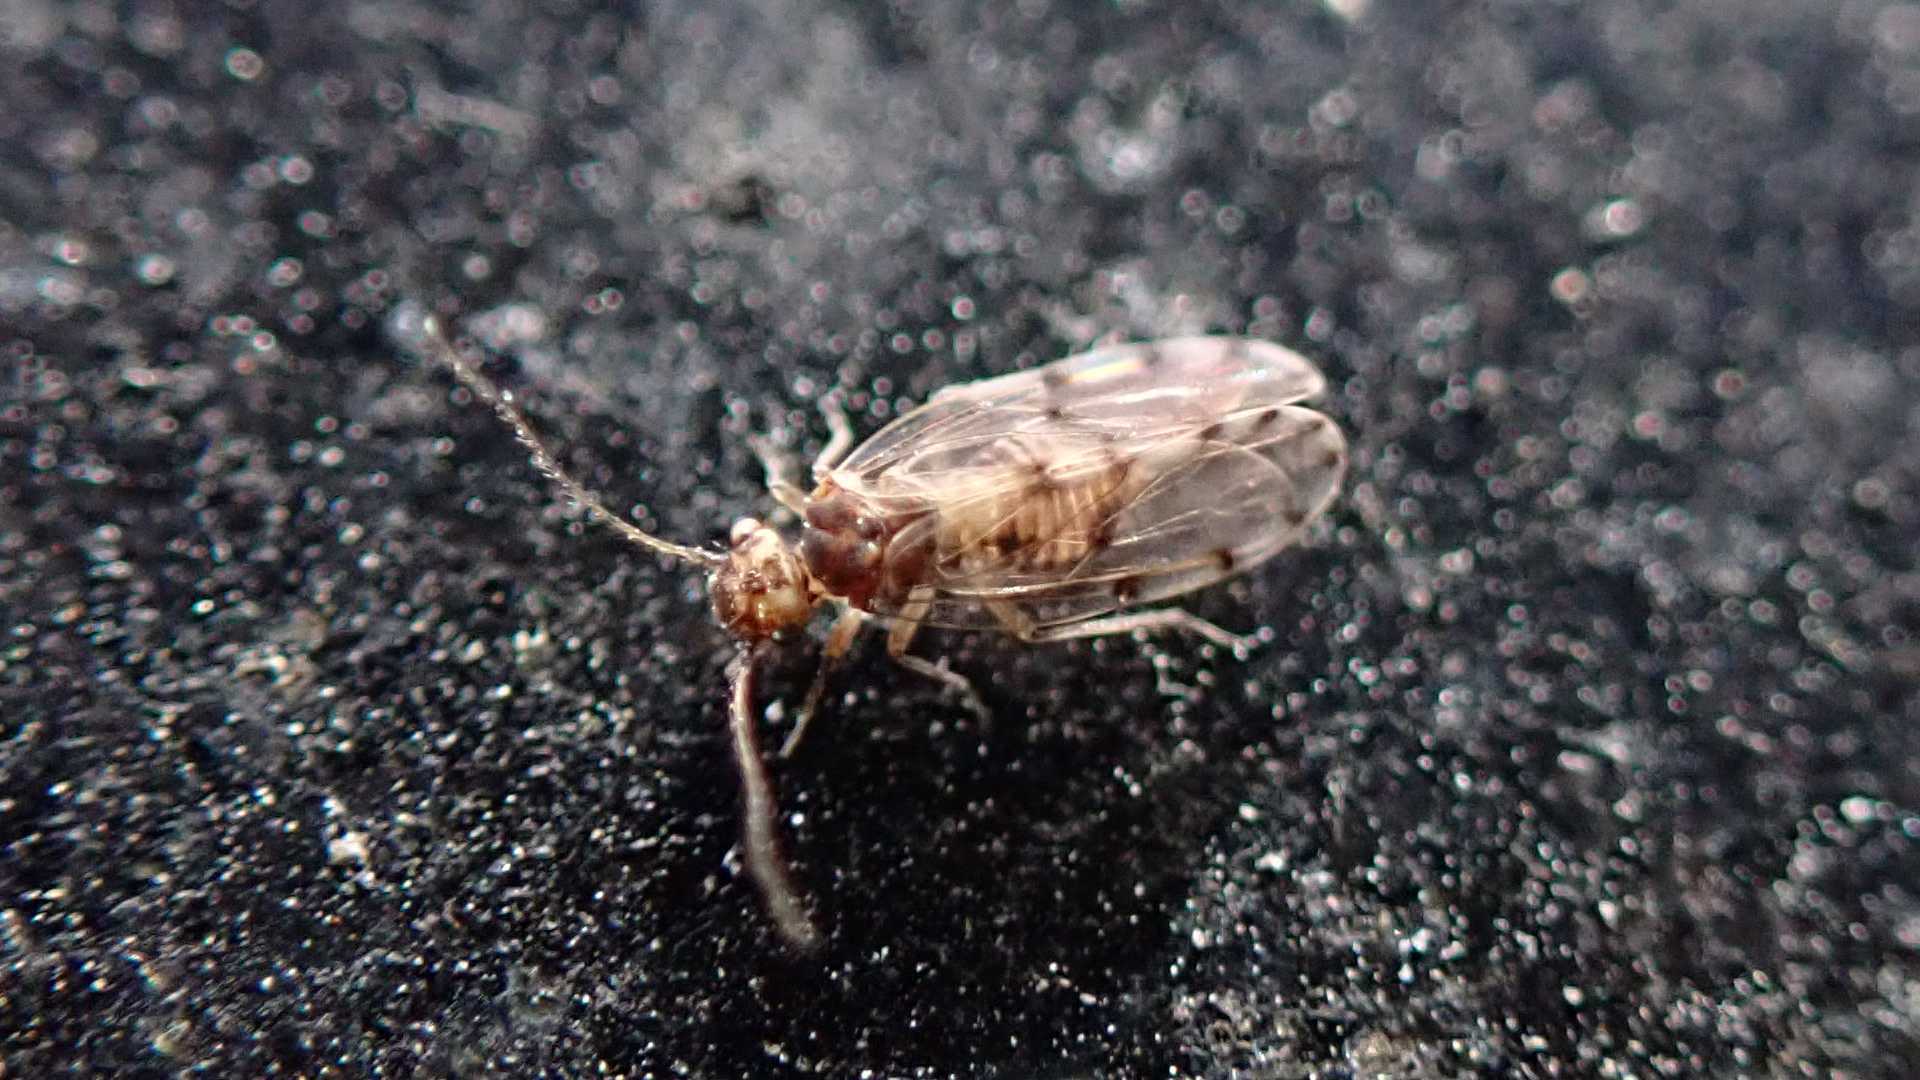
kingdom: Animalia
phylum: Arthropoda
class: Insecta
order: Psocodea
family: Ectopsocidae
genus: Ectopsocus
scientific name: Ectopsocus petersi
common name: Medium-sized bark louse
